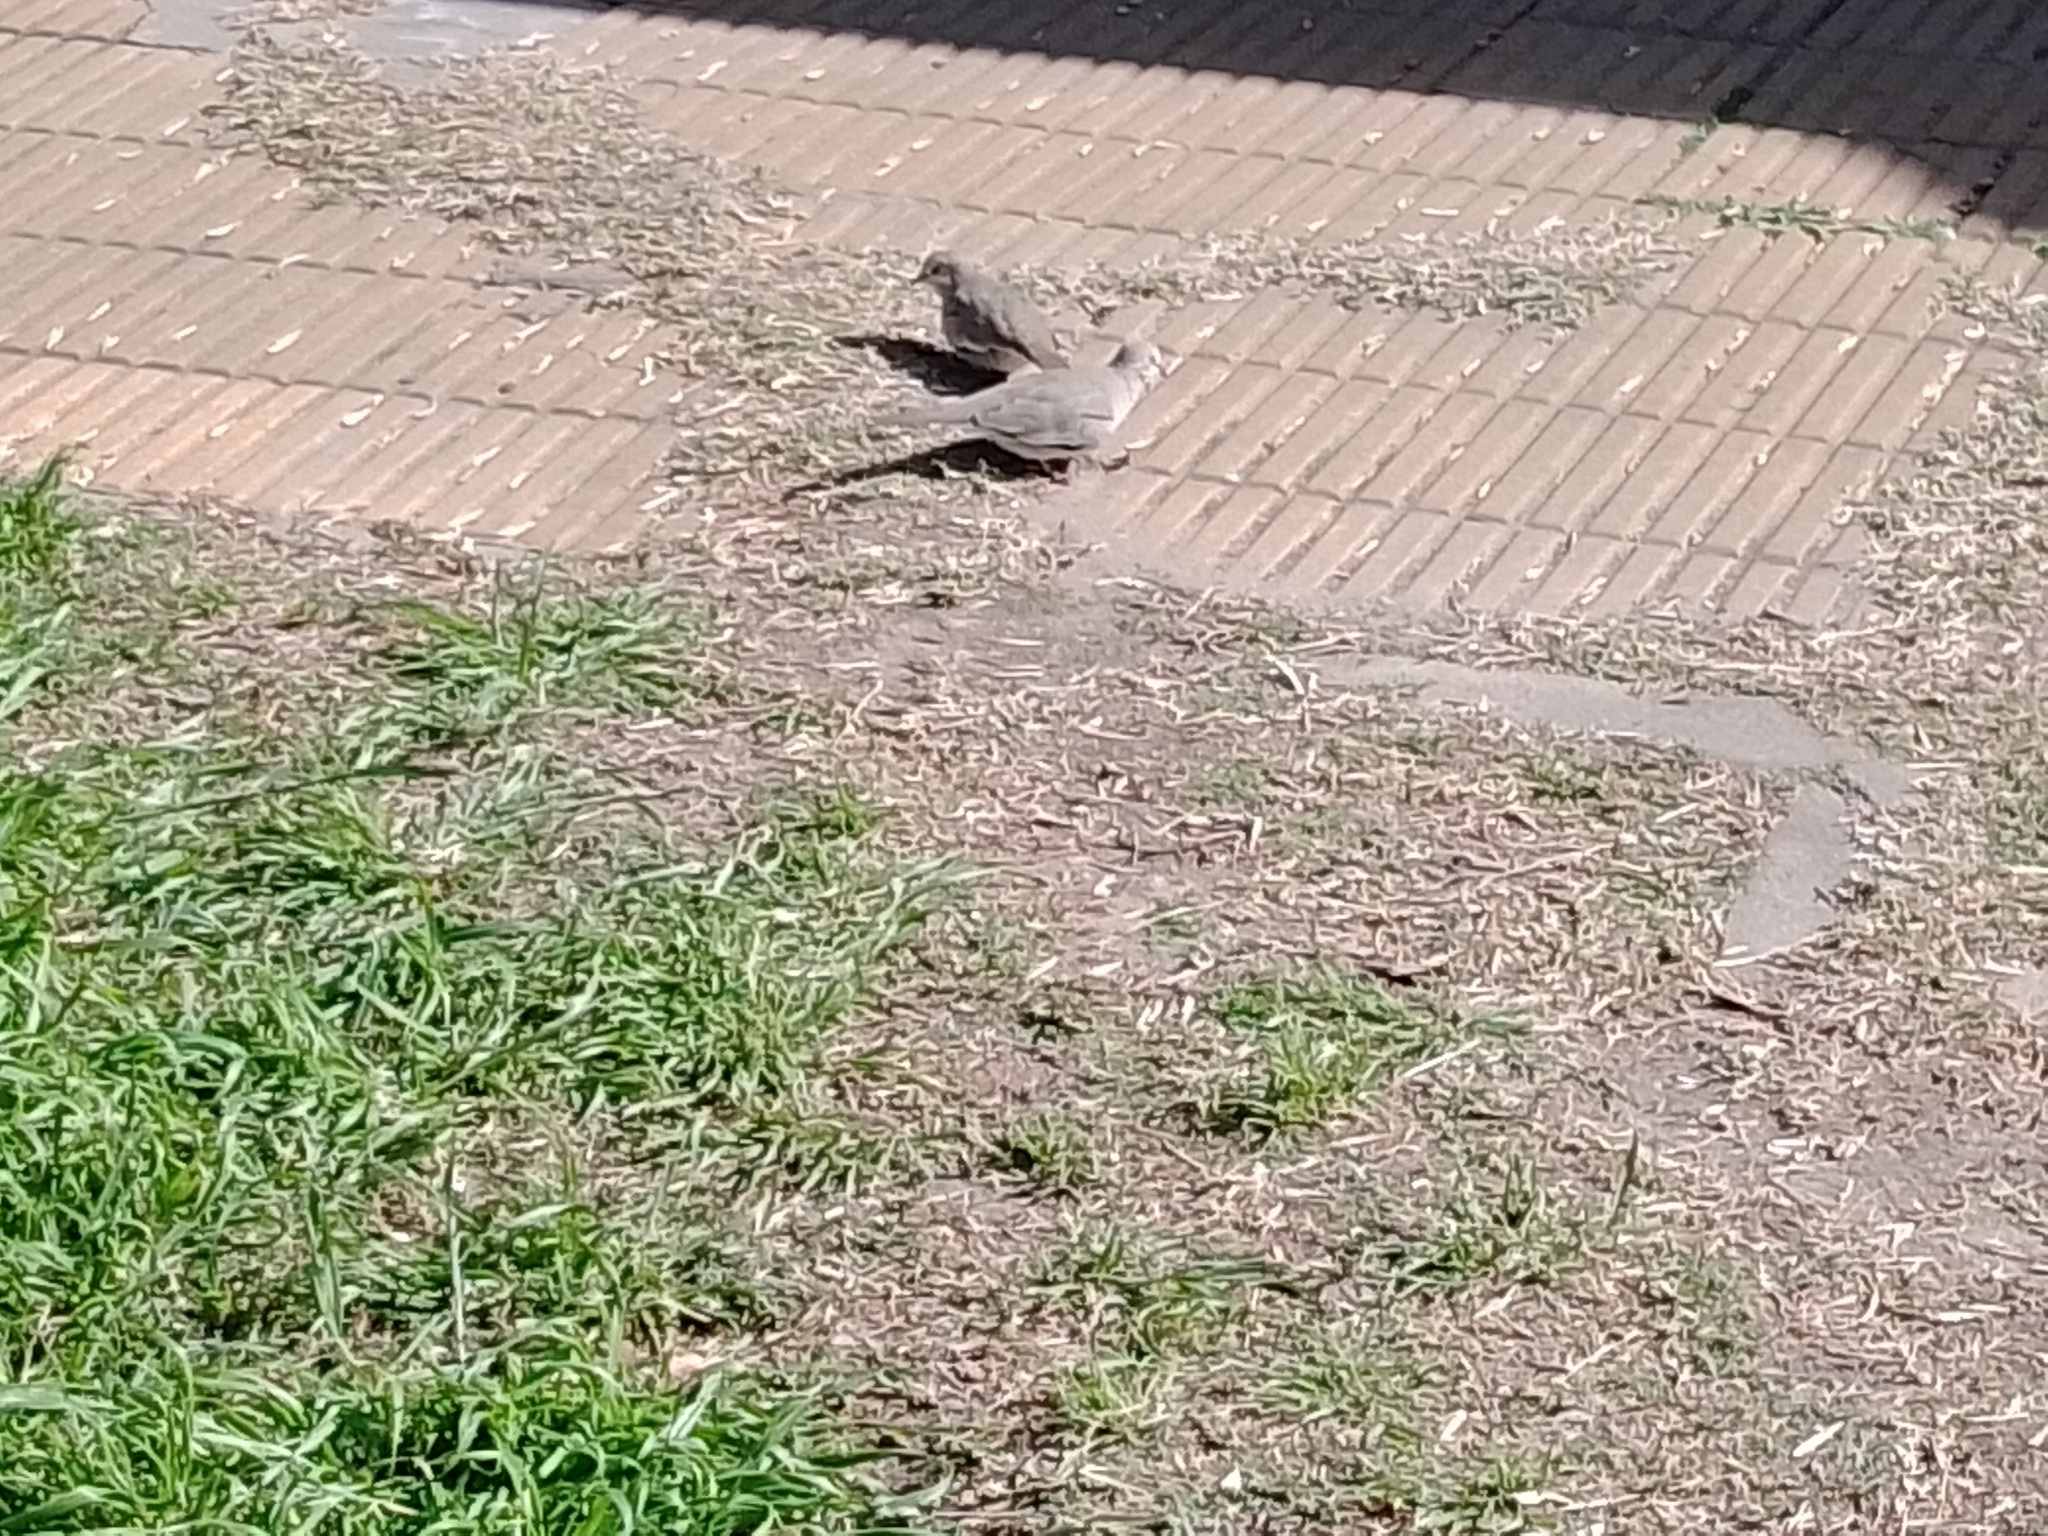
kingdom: Animalia
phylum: Chordata
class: Aves
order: Columbiformes
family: Columbidae
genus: Columbina
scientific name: Columbina picui
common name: Picui ground dove
